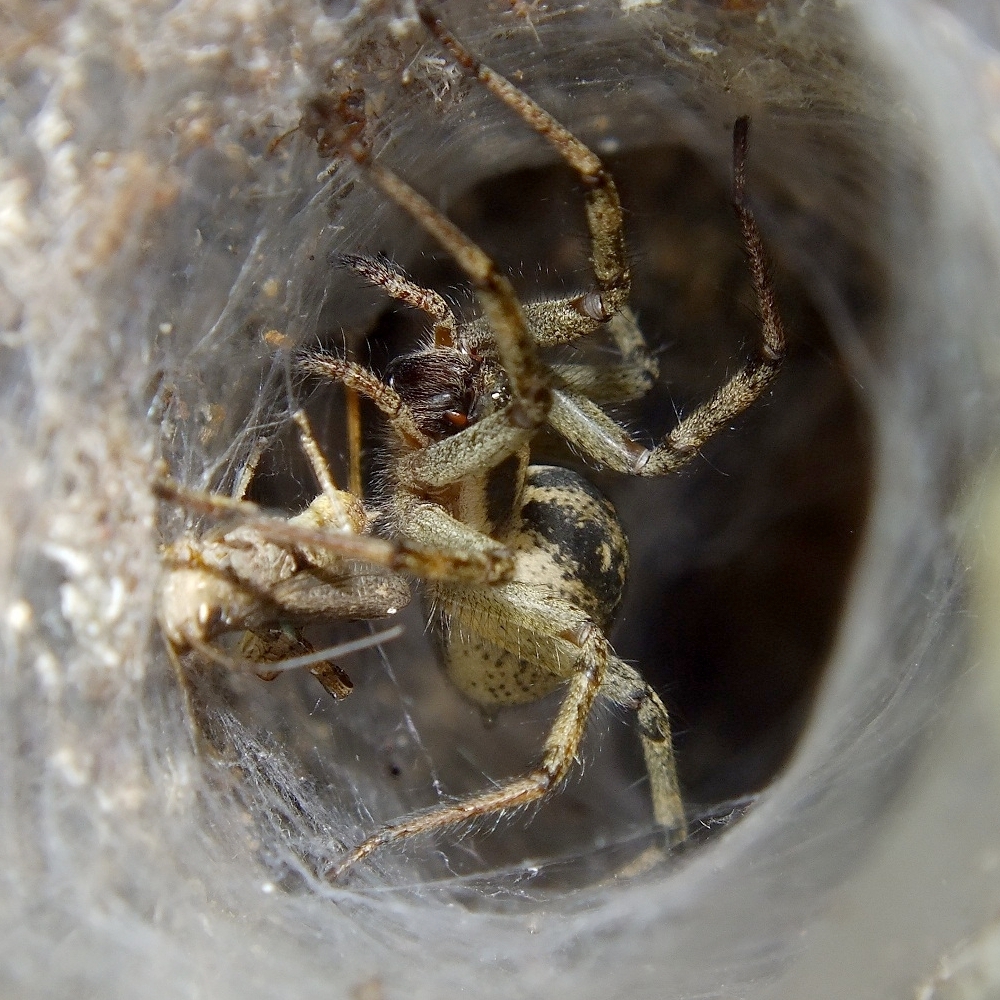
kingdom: Animalia
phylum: Arthropoda
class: Arachnida
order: Araneae
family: Agelenidae
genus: Agelena
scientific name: Agelena labyrinthica
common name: Labyrinth spider
